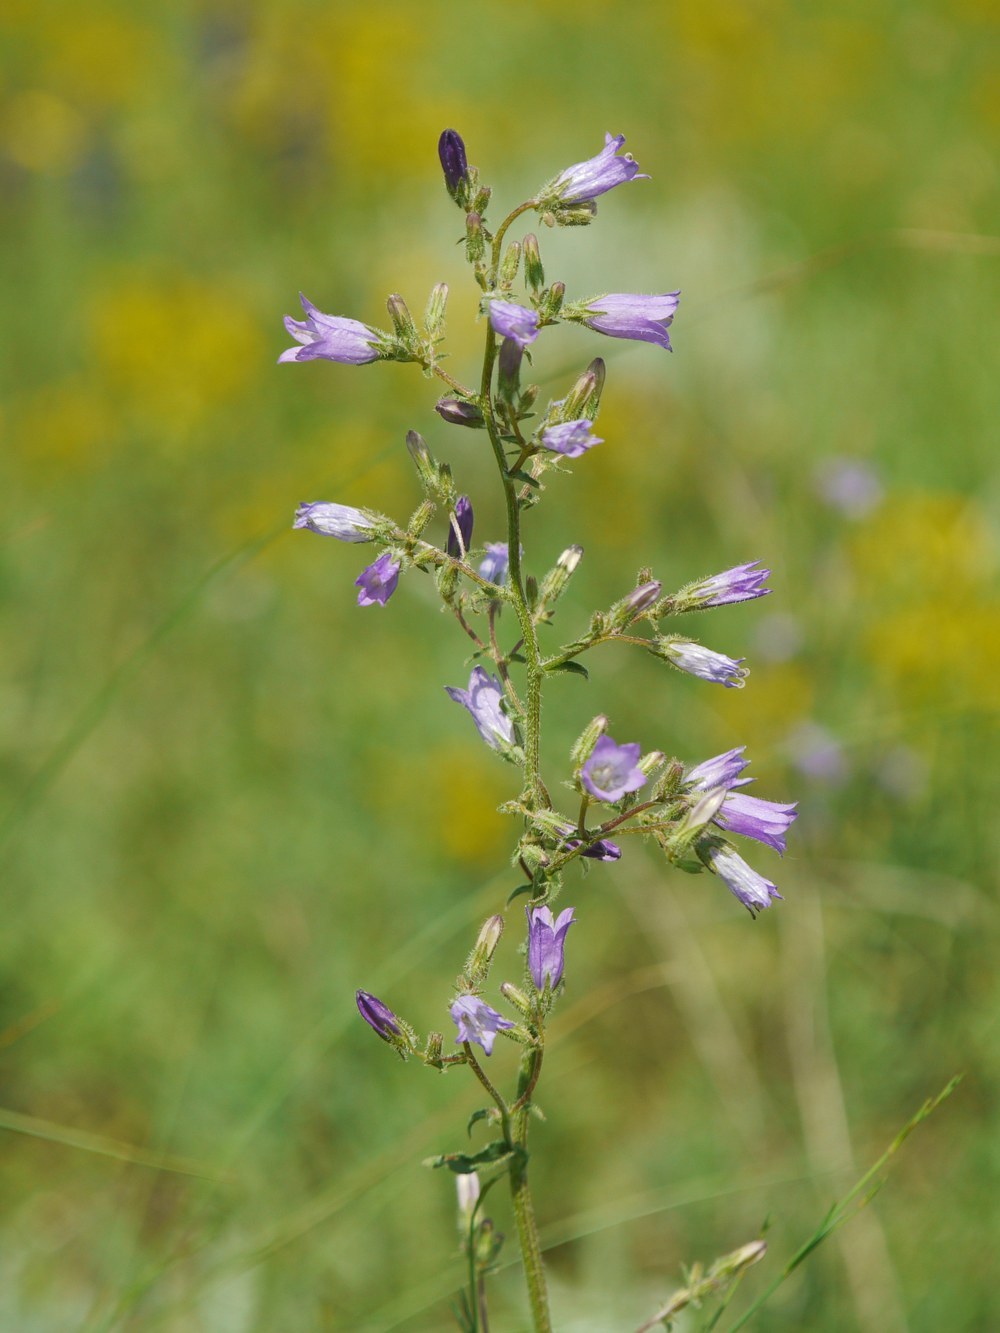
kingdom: Plantae
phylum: Tracheophyta
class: Magnoliopsida
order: Asterales
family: Campanulaceae
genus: Campanula
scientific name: Campanula sibirica
